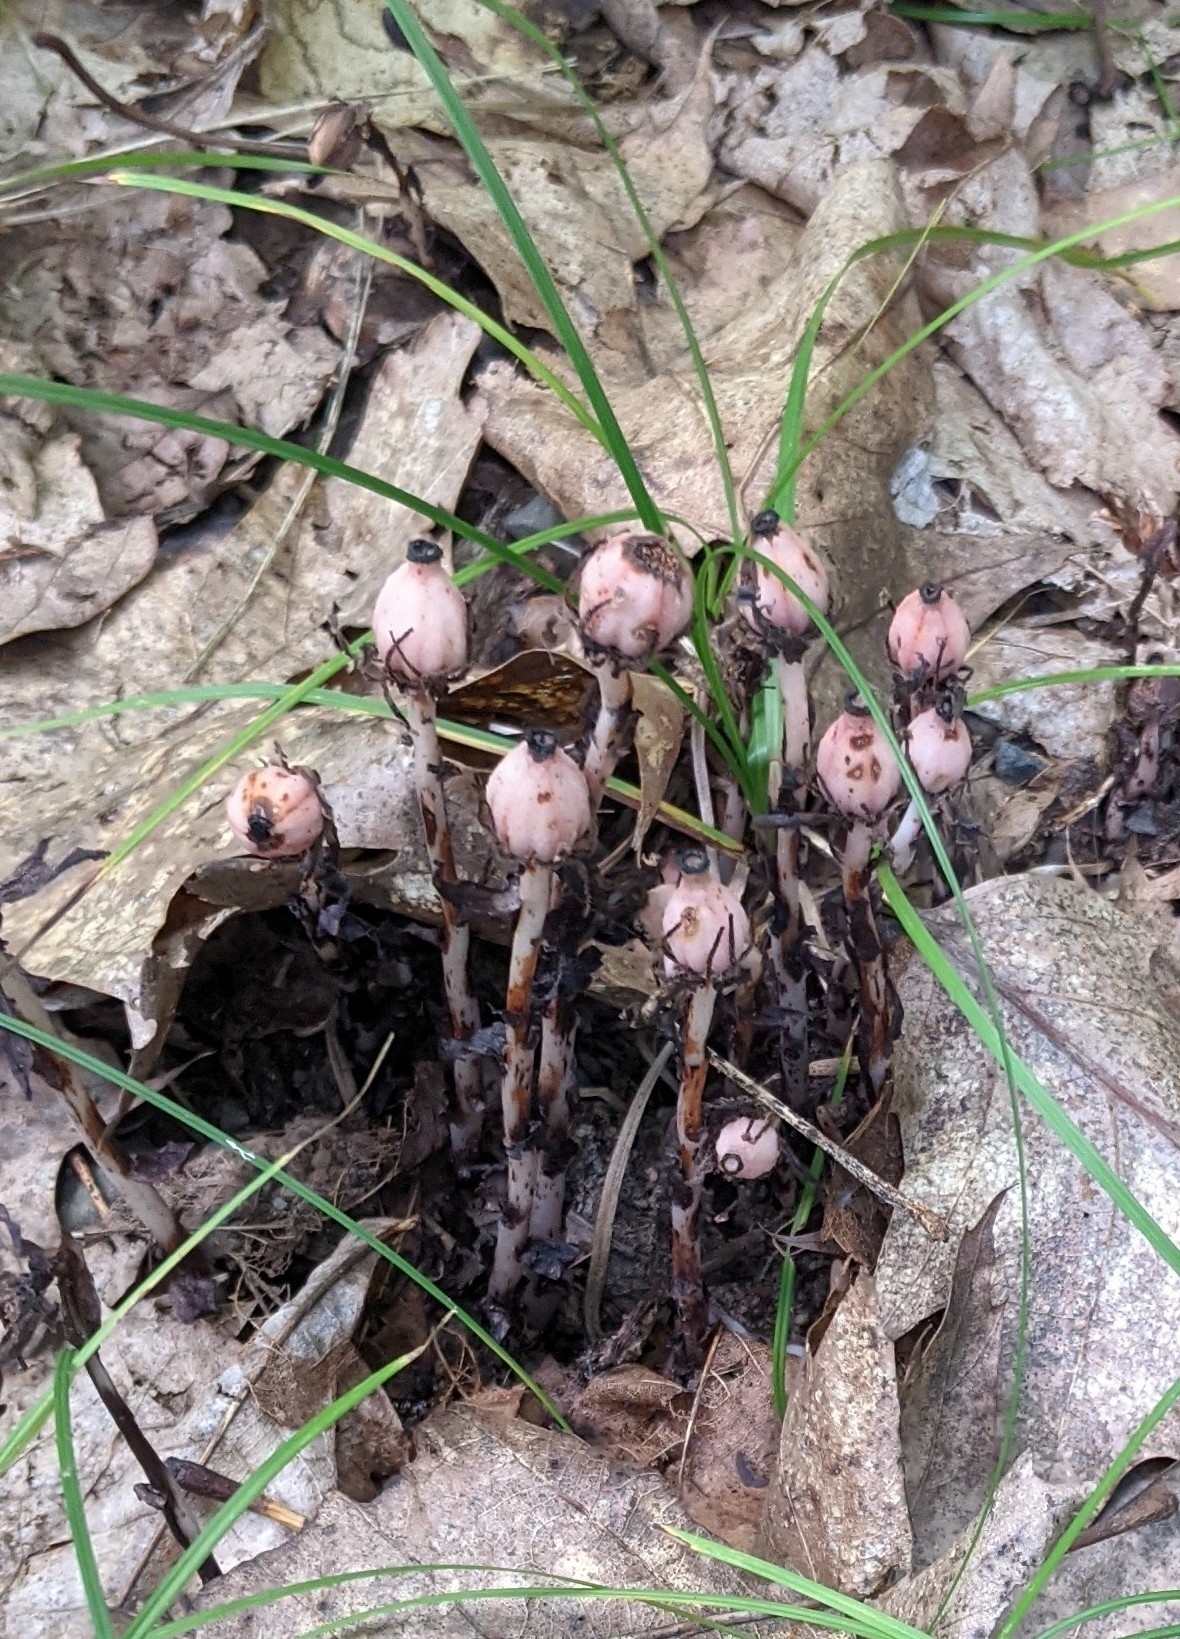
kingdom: Plantae
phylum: Tracheophyta
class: Magnoliopsida
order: Ericales
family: Ericaceae
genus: Monotropa
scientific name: Monotropa uniflora
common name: Convulsion root
